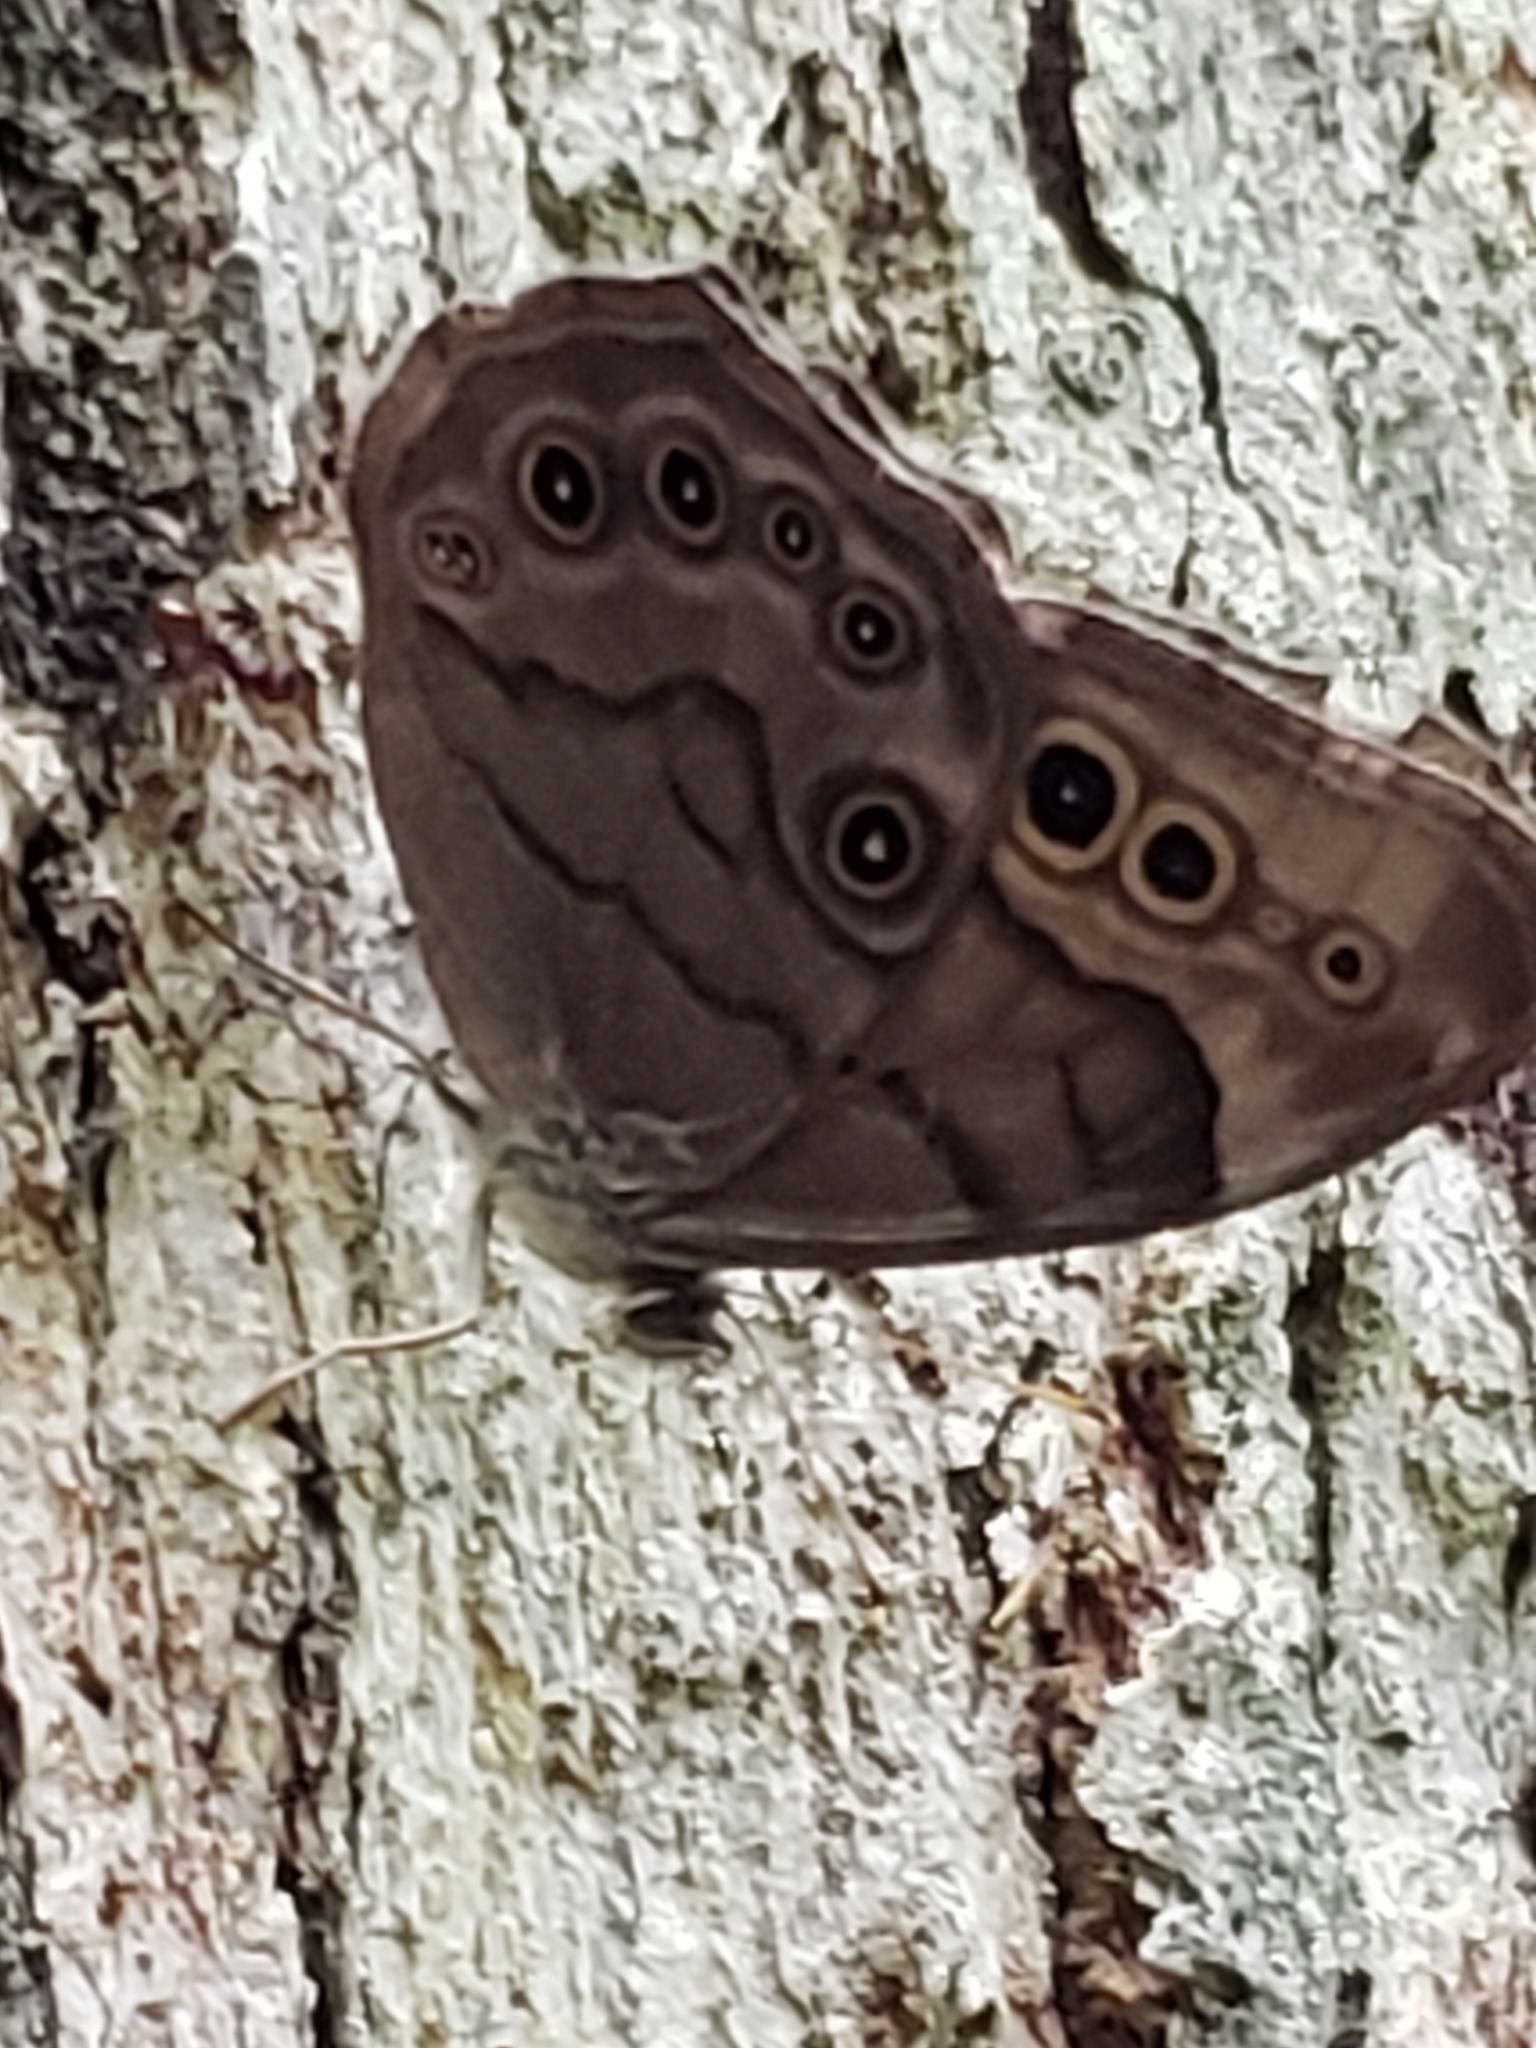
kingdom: Animalia
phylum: Arthropoda
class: Insecta
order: Lepidoptera
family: Nymphalidae
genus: Lethe
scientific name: Lethe anthedon
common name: Northern pearly-eye
